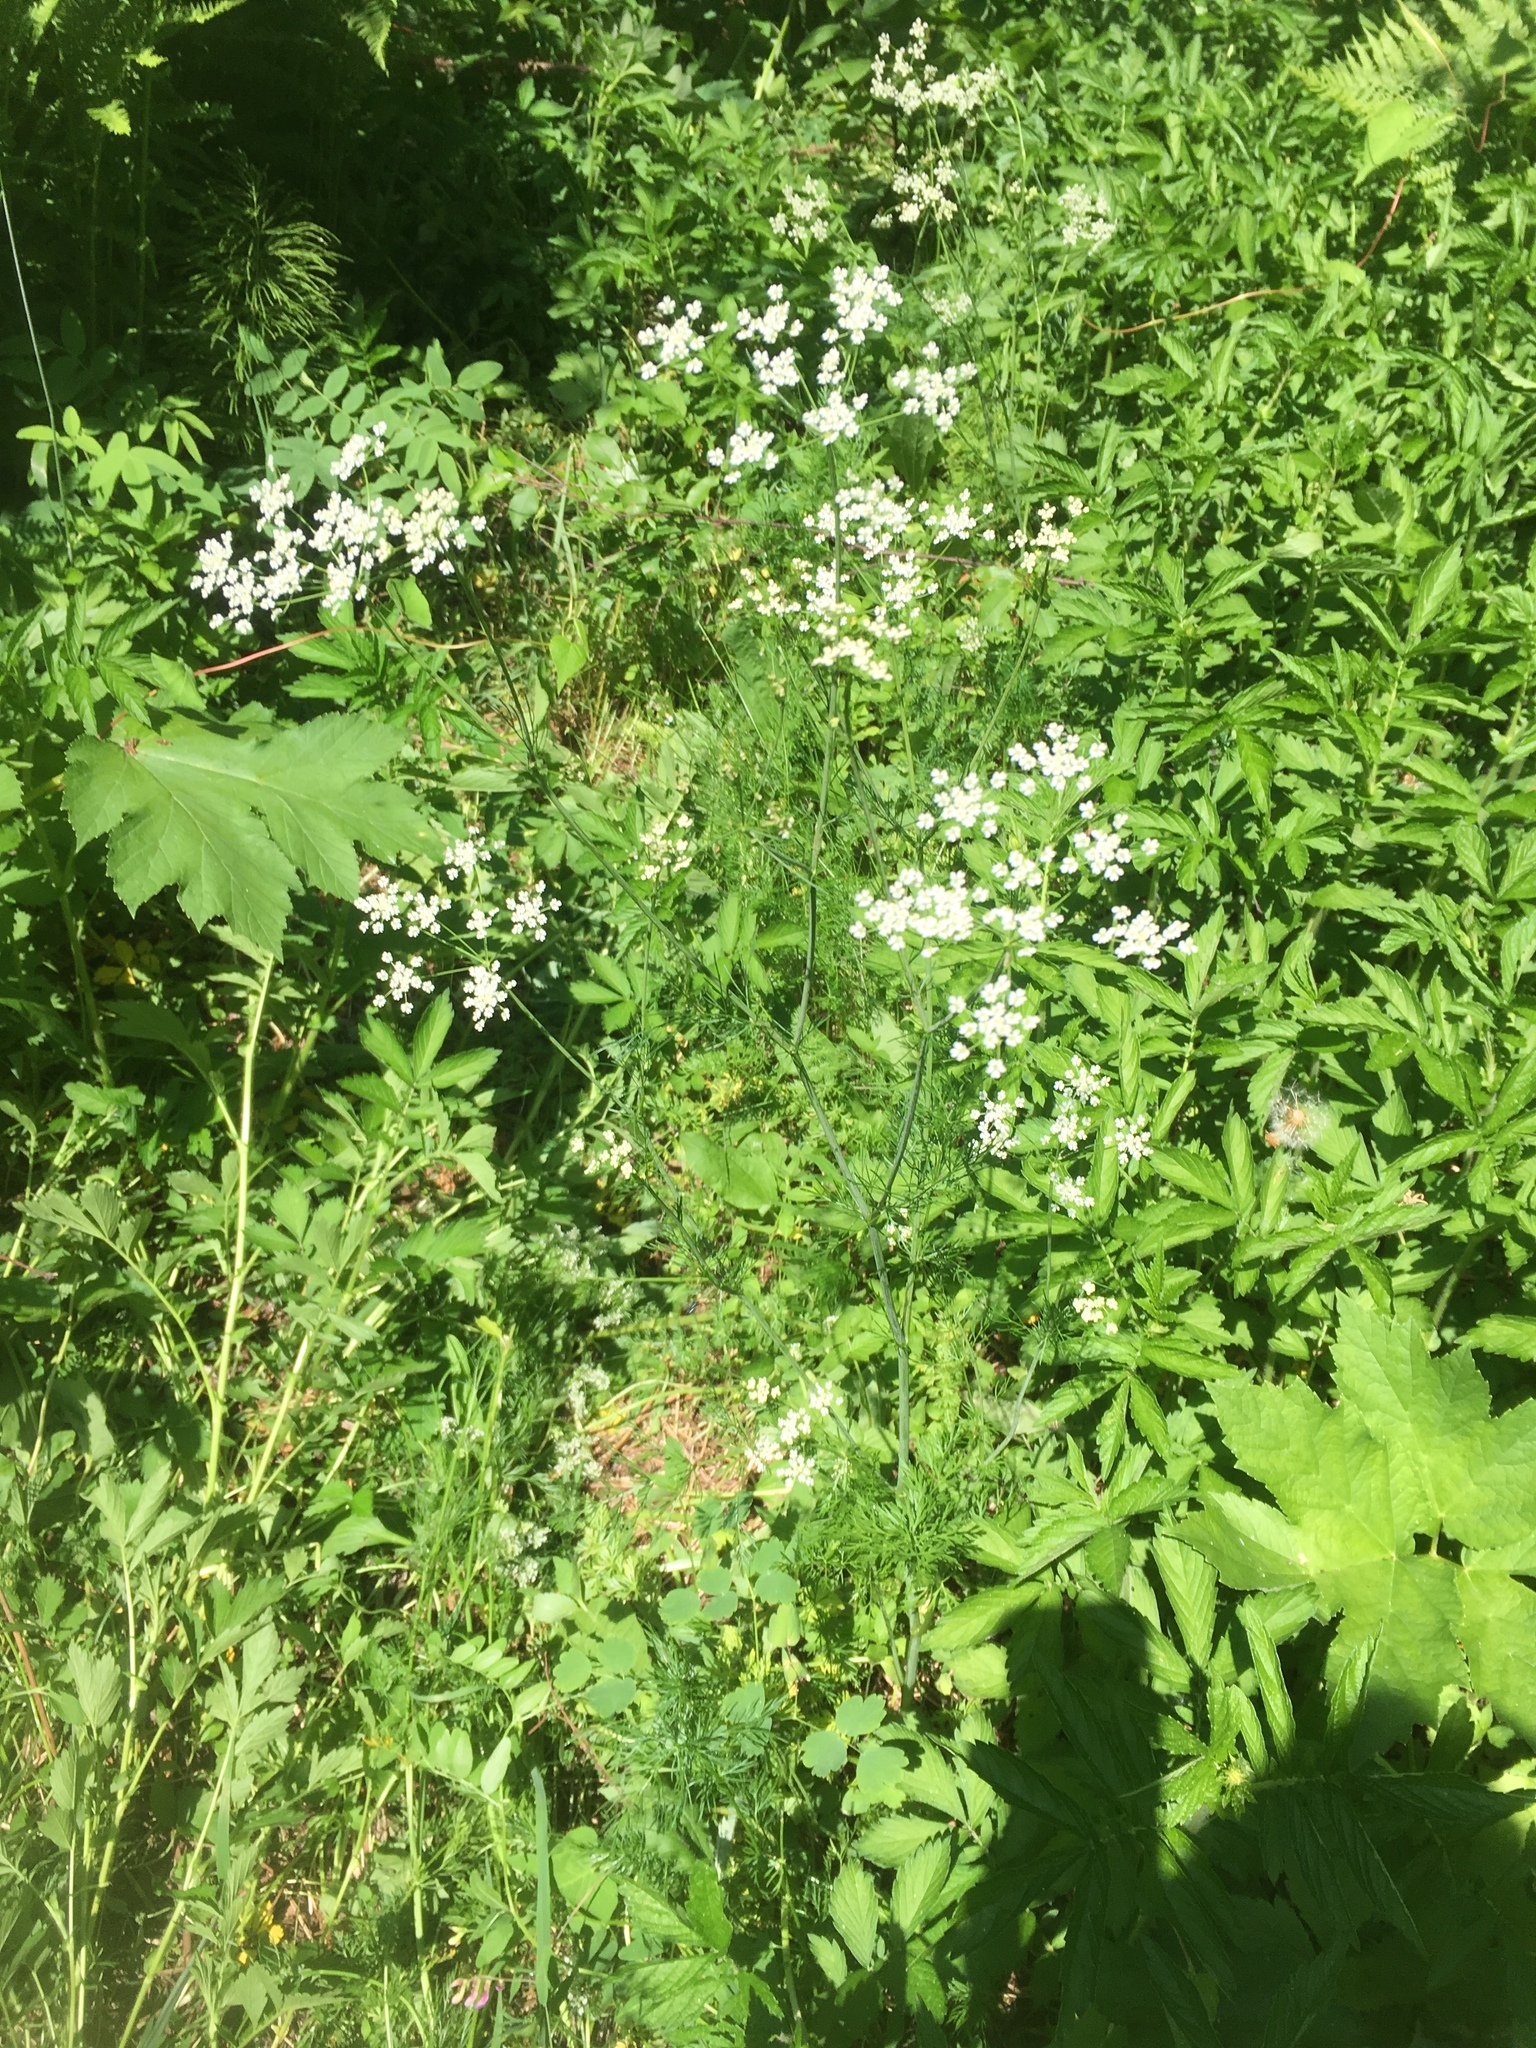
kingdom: Plantae
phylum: Tracheophyta
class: Magnoliopsida
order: Apiales
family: Apiaceae
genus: Carum
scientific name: Carum carvi
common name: Caraway
